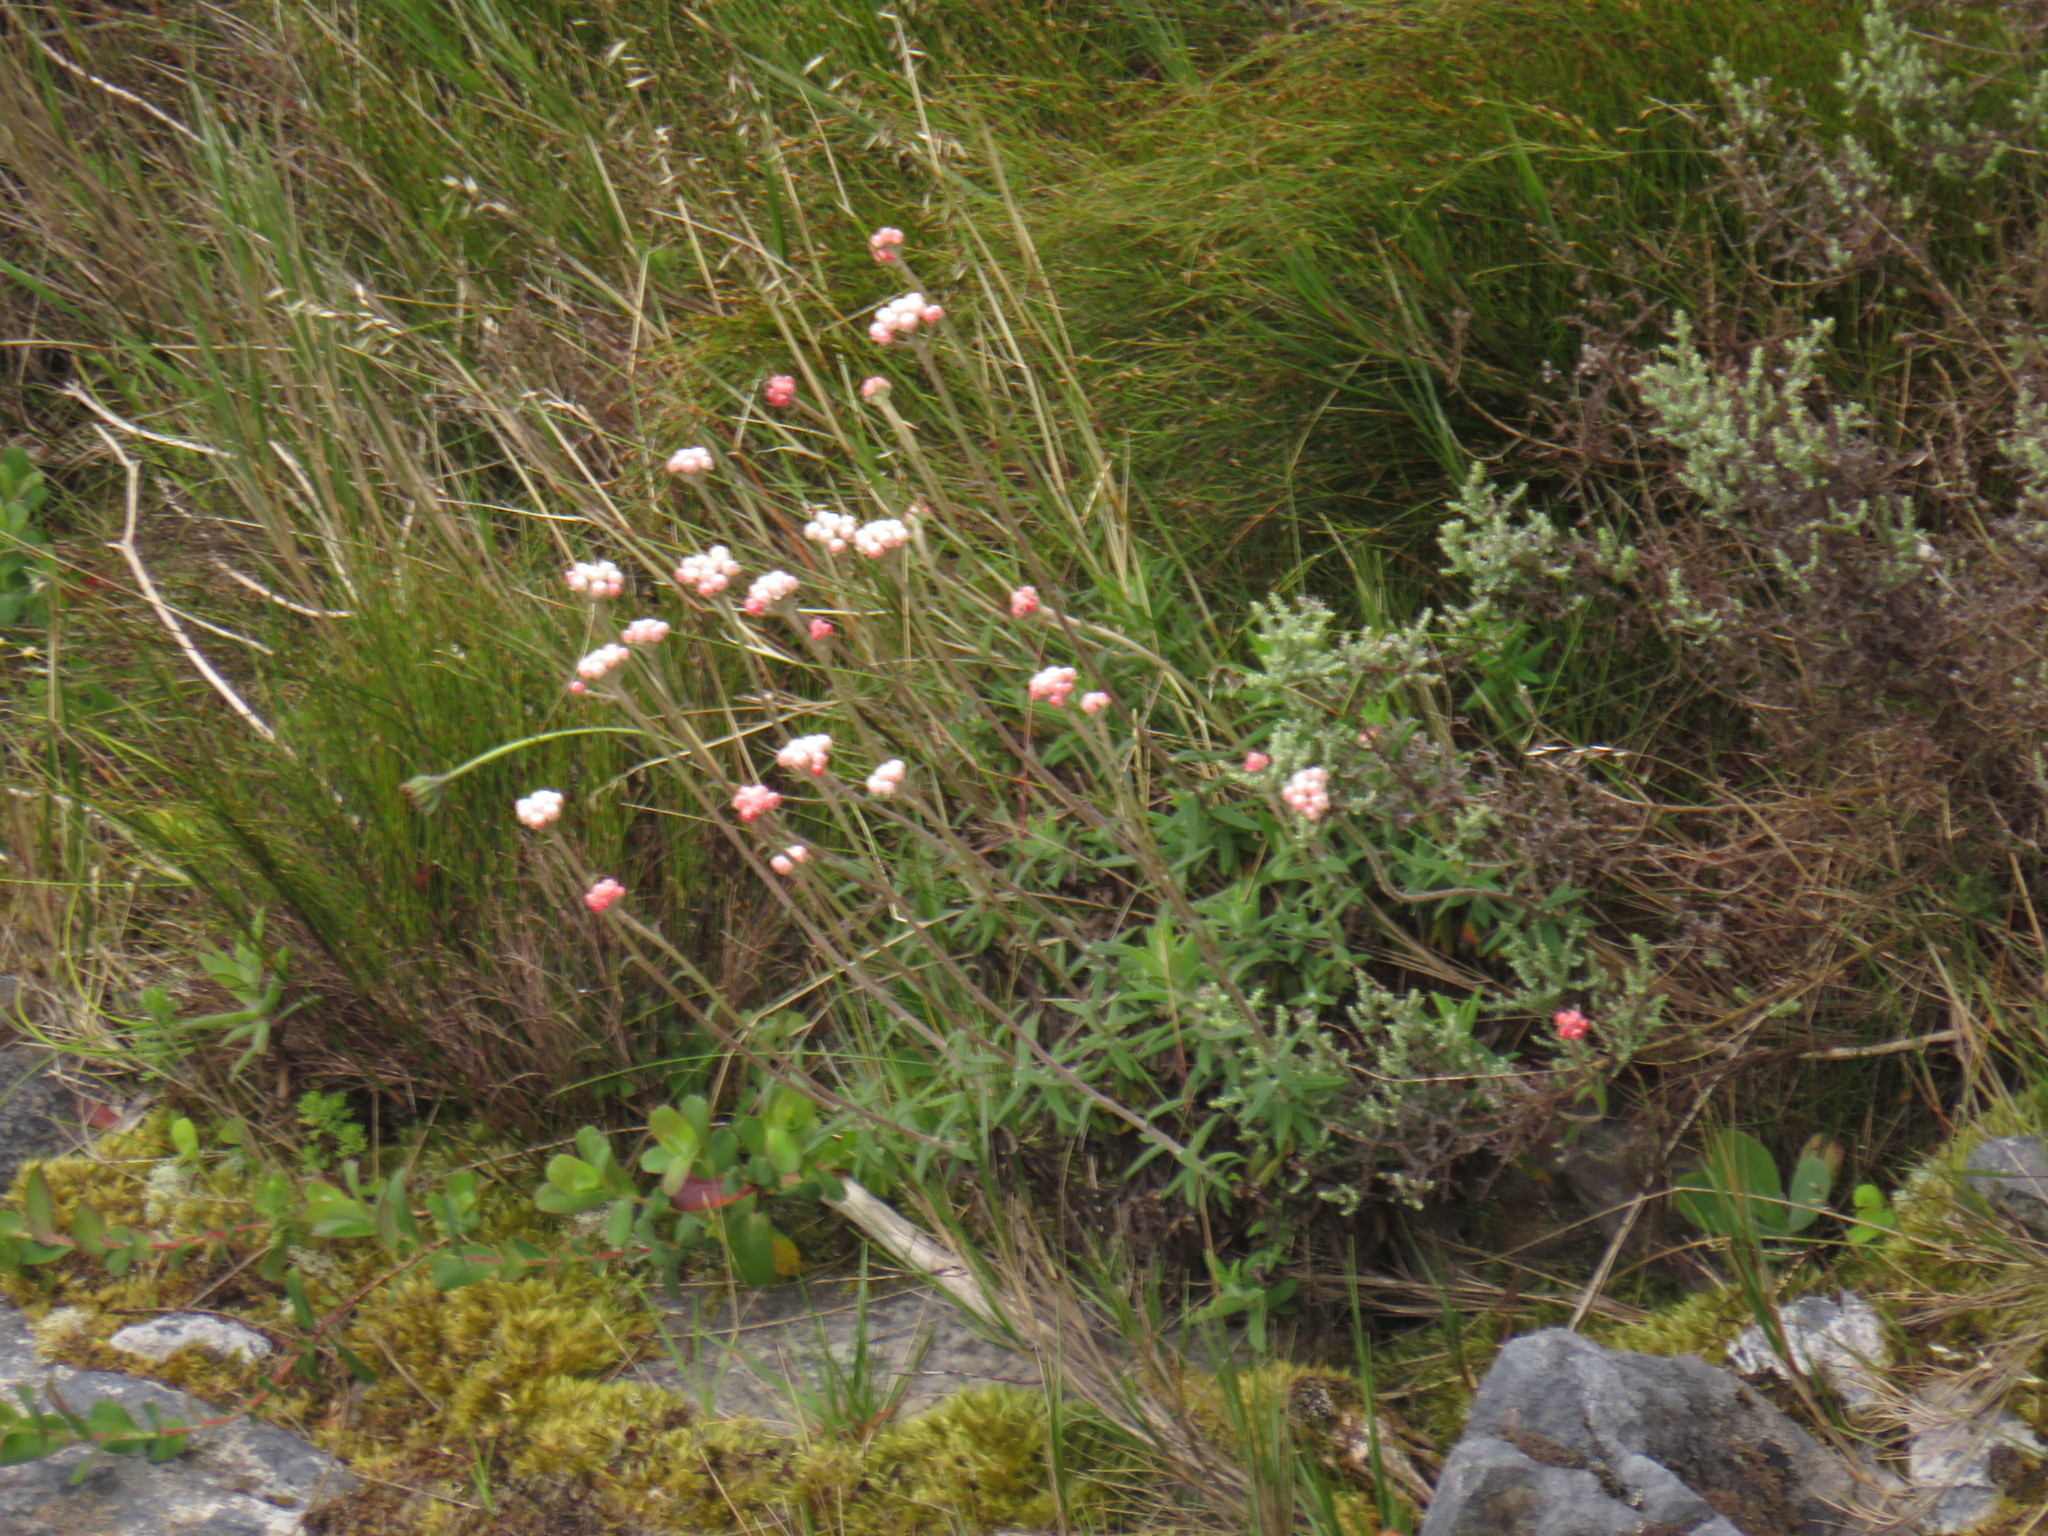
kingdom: Plantae
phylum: Tracheophyta
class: Magnoliopsida
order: Asterales
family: Asteraceae
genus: Helichrysum
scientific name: Helichrysum felinum
